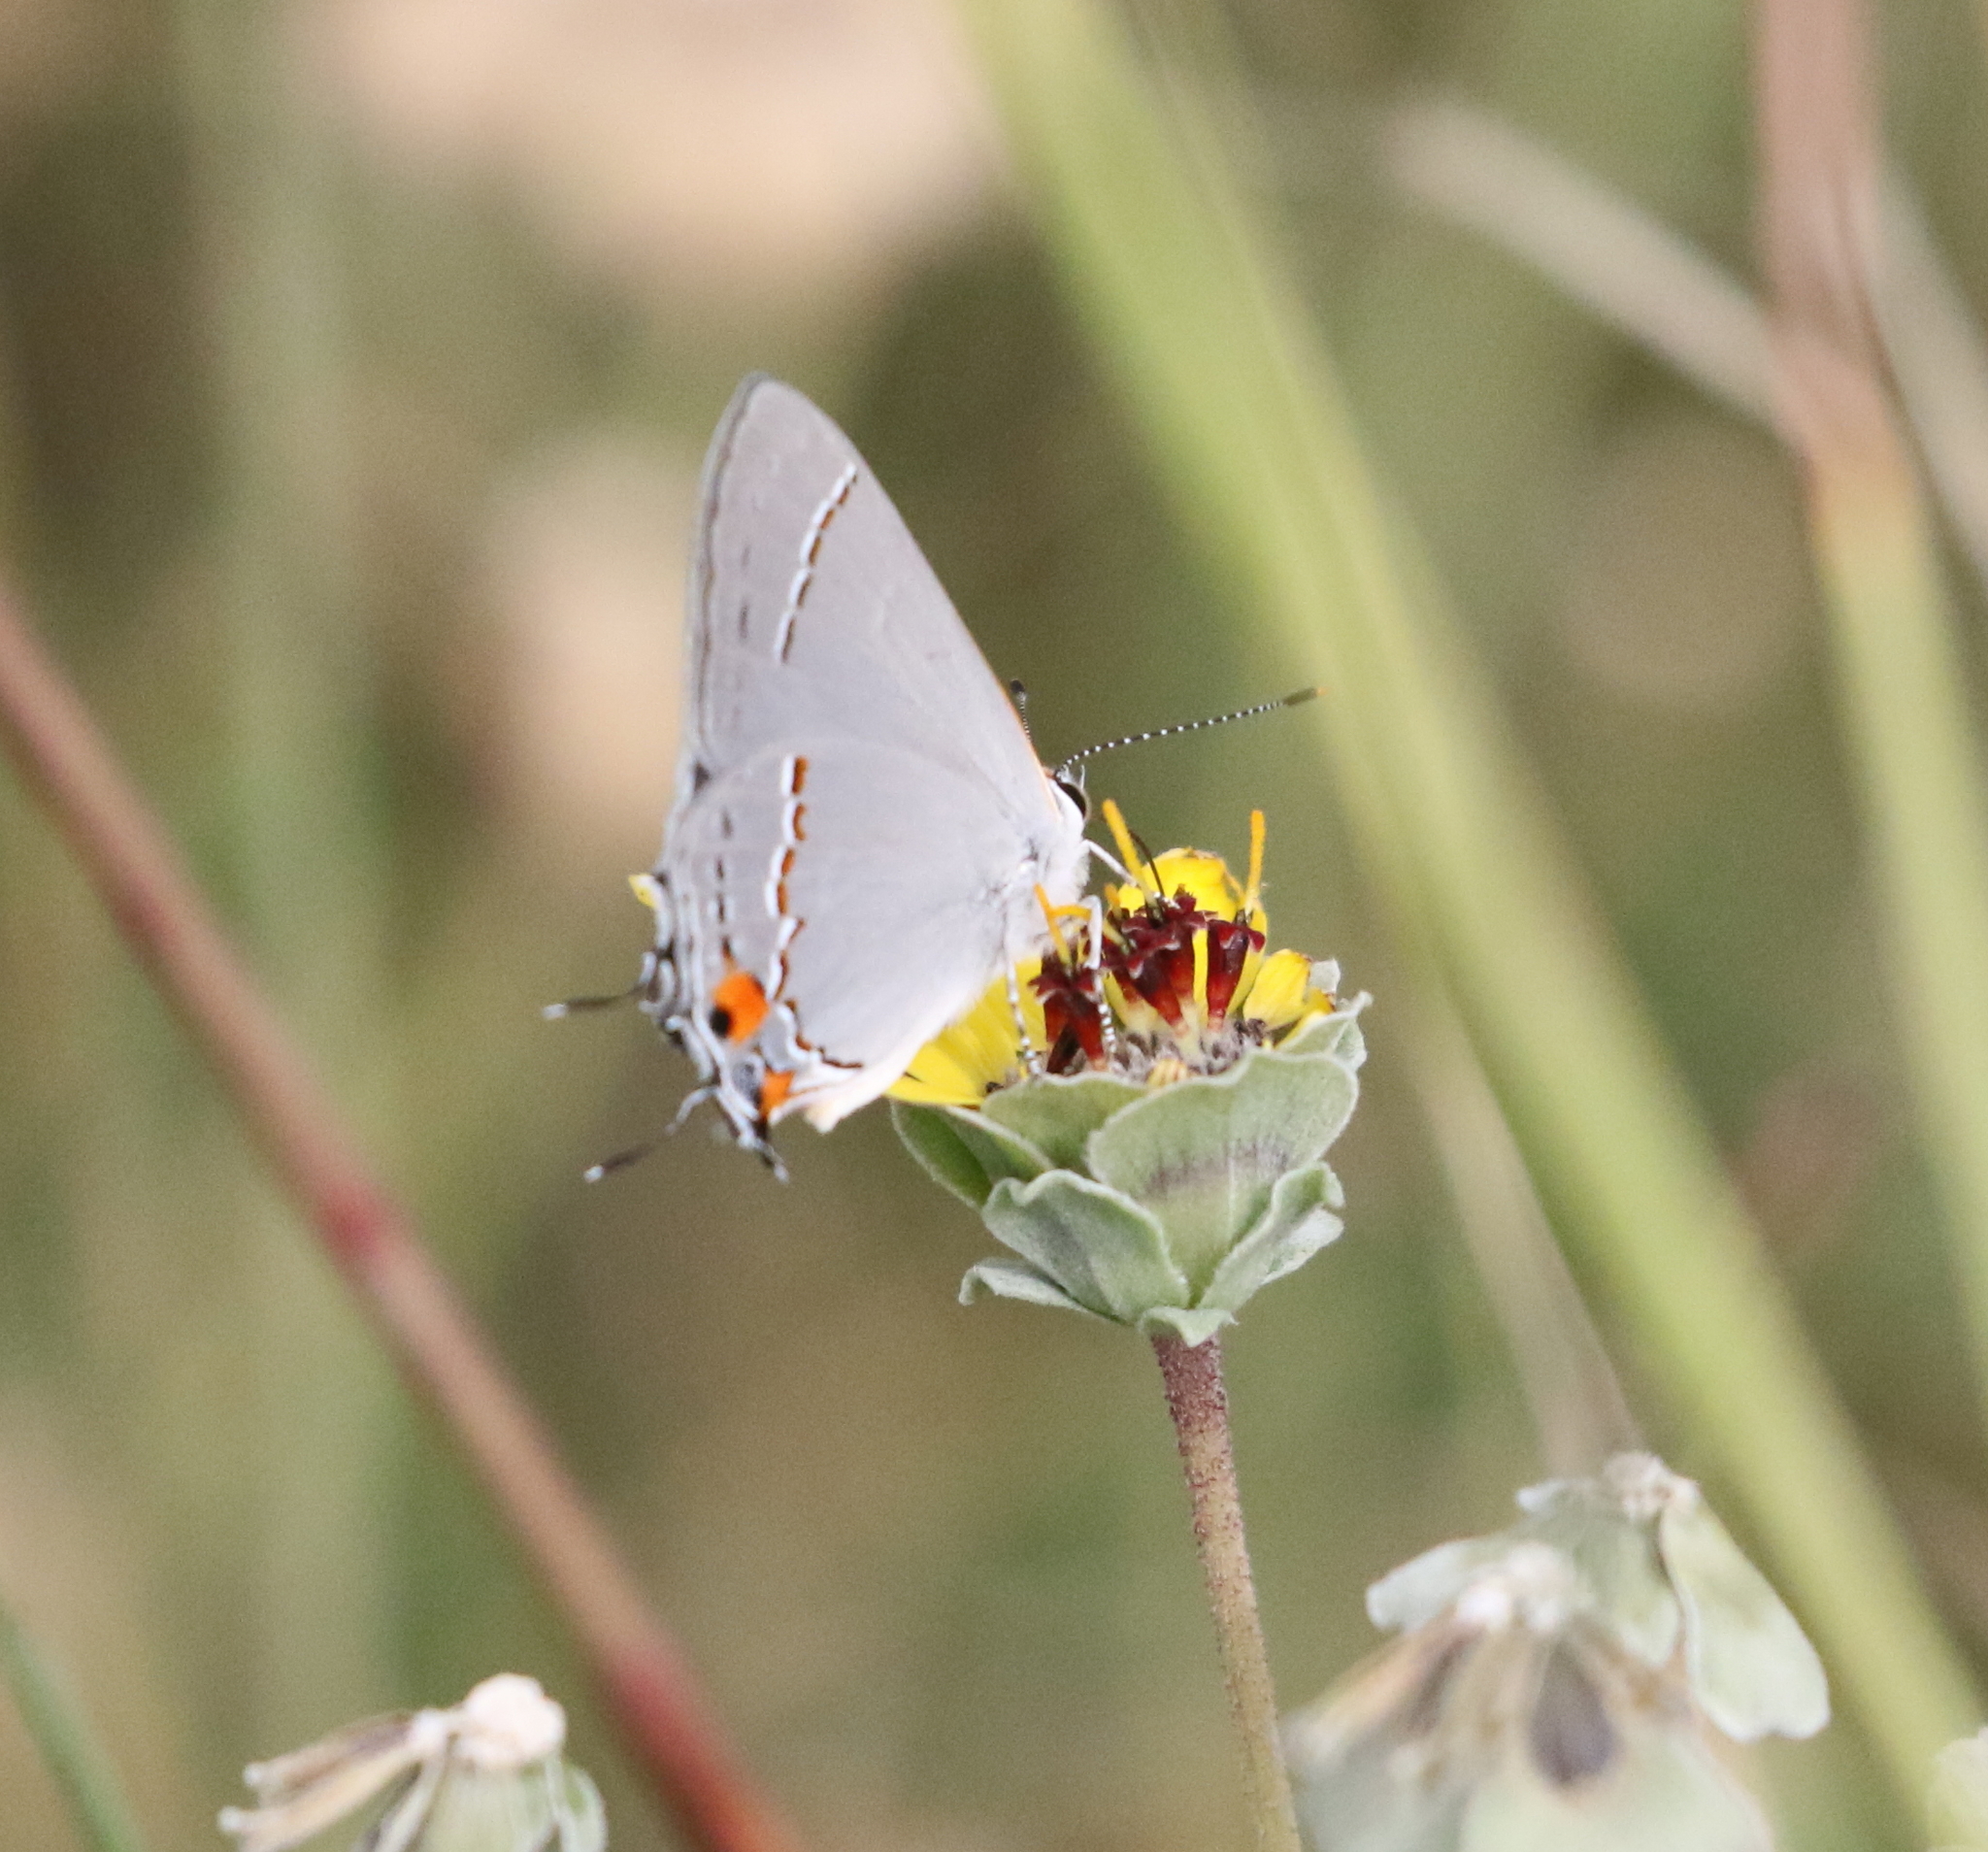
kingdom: Animalia
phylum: Arthropoda
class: Insecta
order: Lepidoptera
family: Lycaenidae
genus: Strymon
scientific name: Strymon melinus
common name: Gray hairstreak
